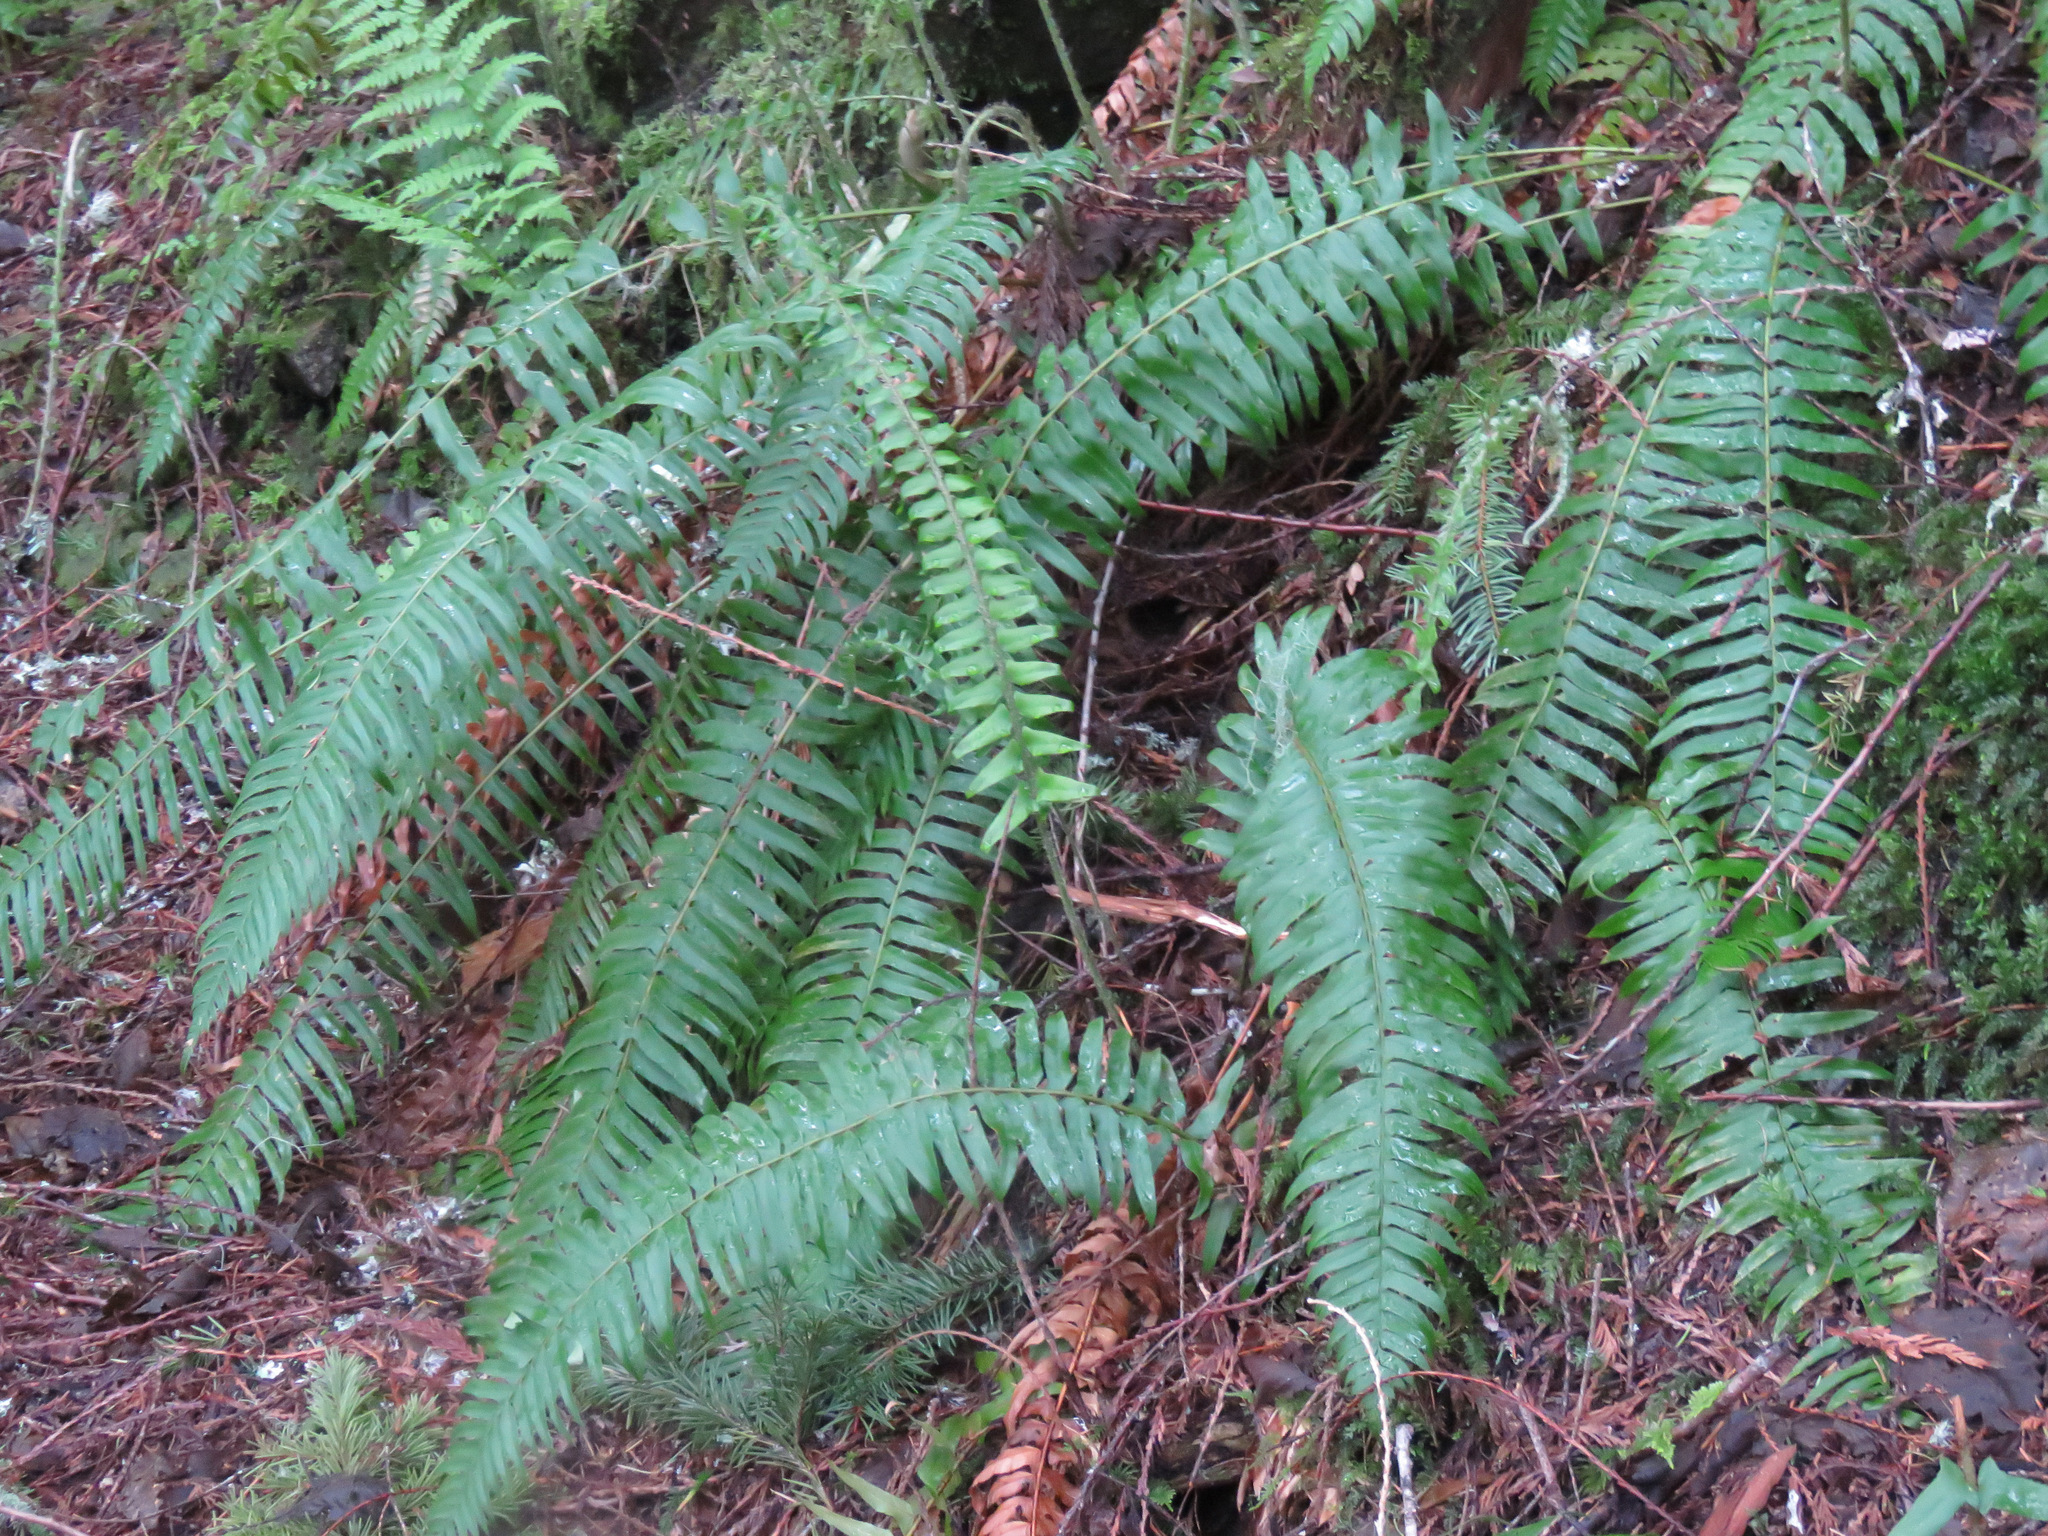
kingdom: Plantae
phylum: Tracheophyta
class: Polypodiopsida
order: Polypodiales
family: Dryopteridaceae
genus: Polystichum
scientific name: Polystichum munitum
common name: Western sword-fern
